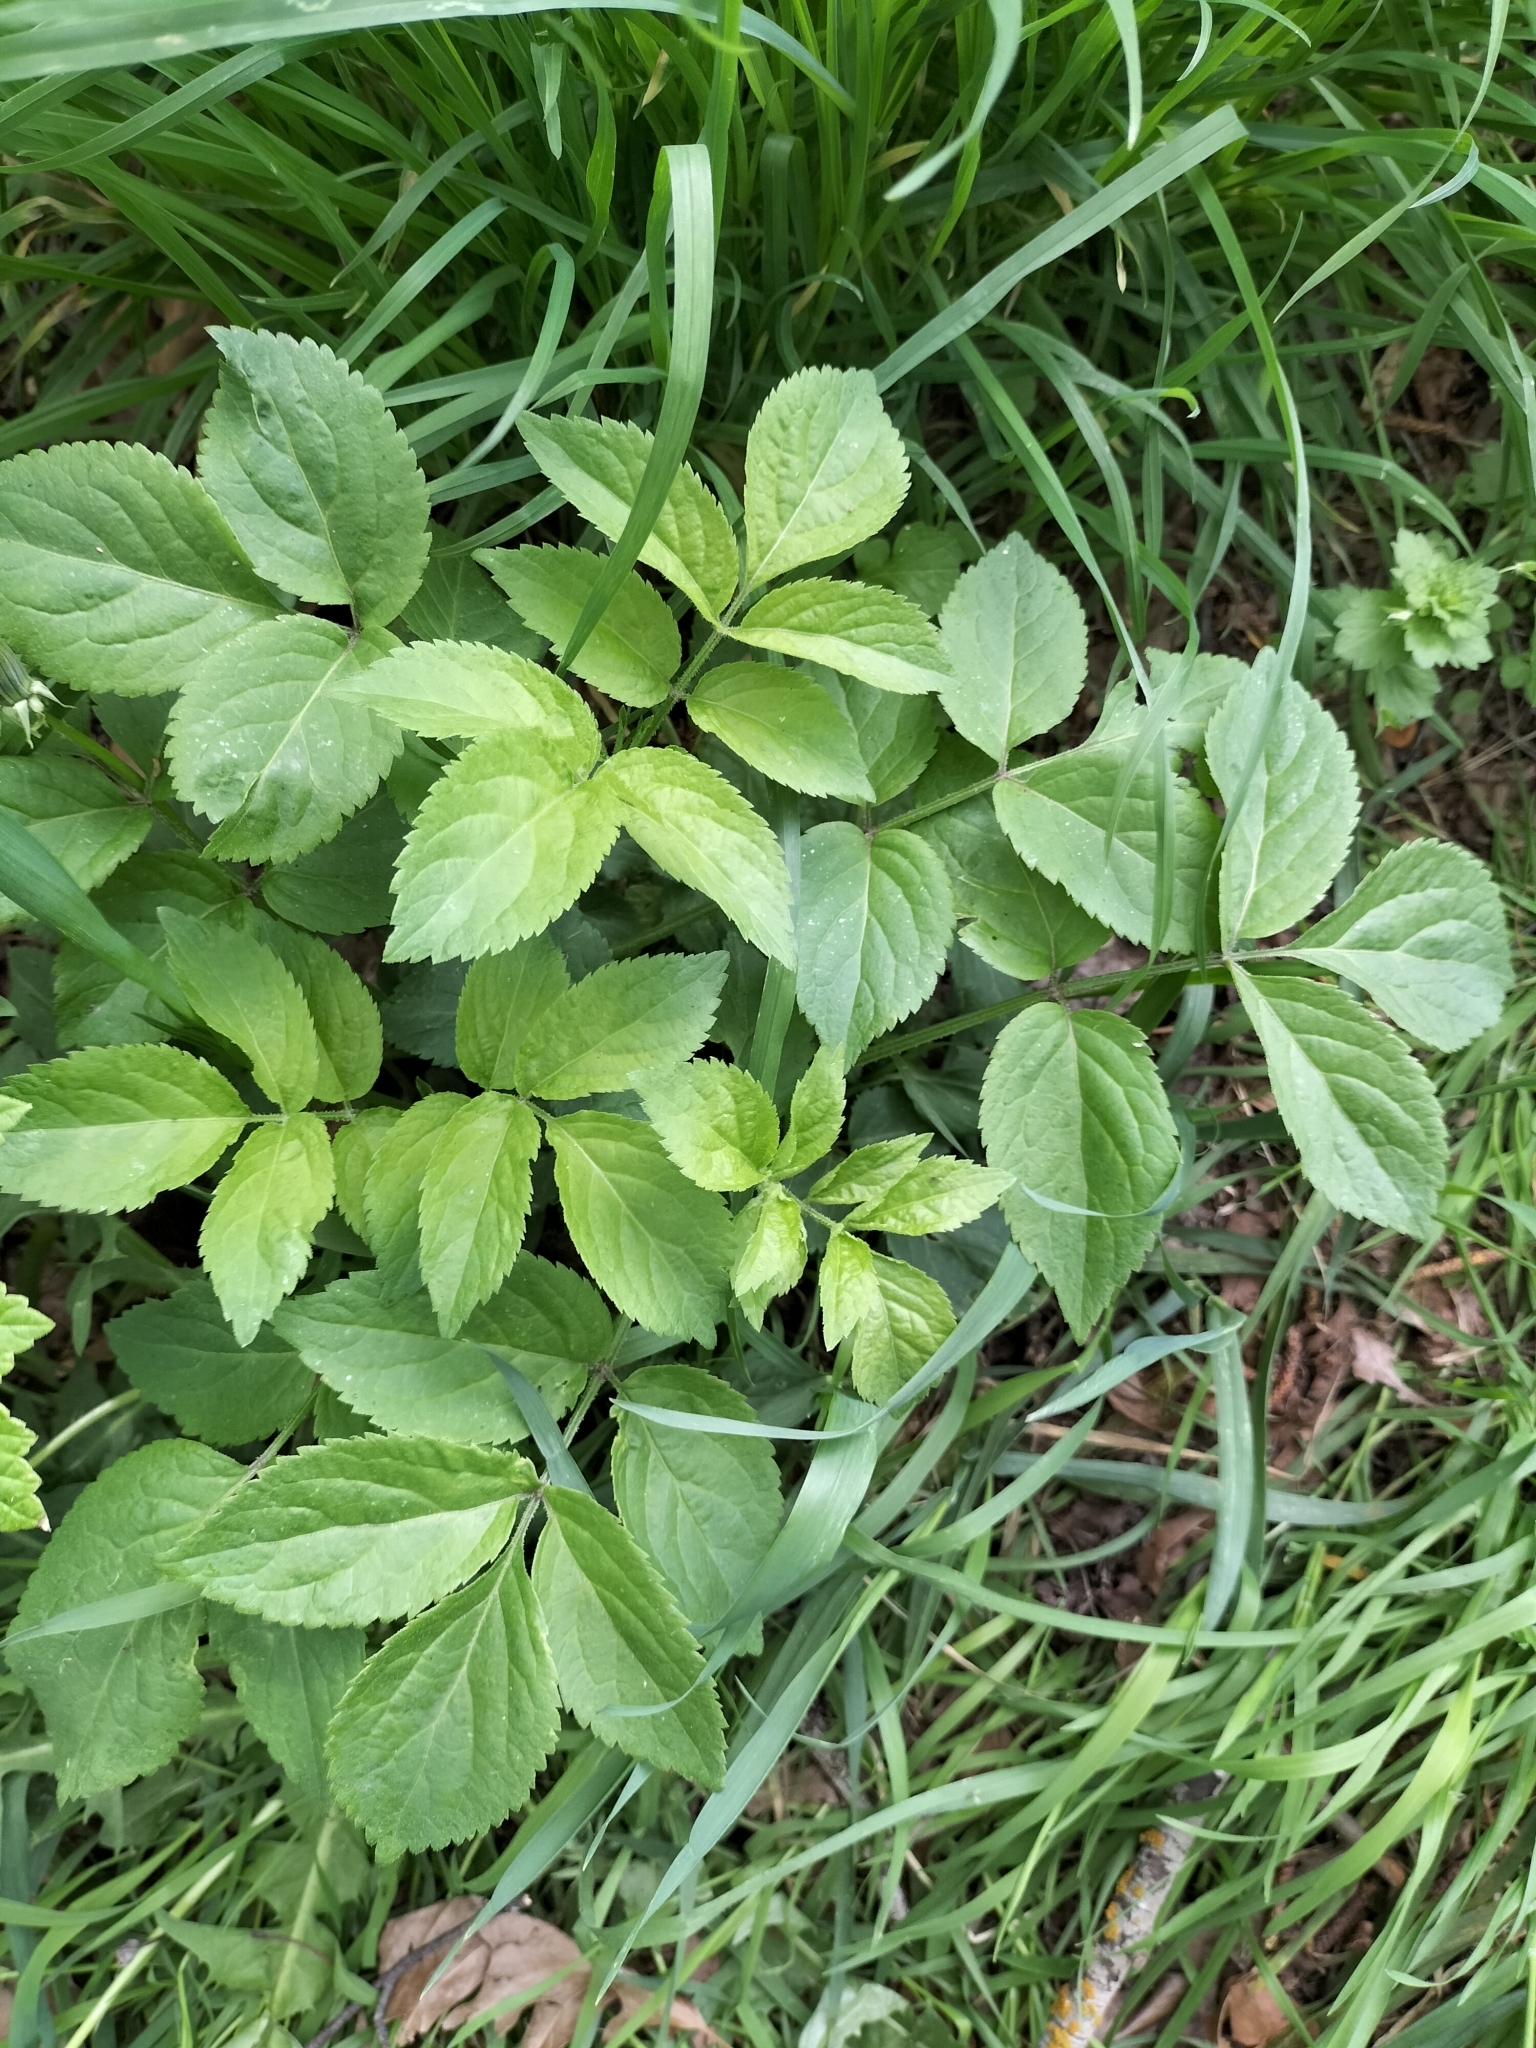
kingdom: Plantae
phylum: Tracheophyta
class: Magnoliopsida
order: Dipsacales
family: Viburnaceae
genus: Sambucus
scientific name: Sambucus nigra
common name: Elder
